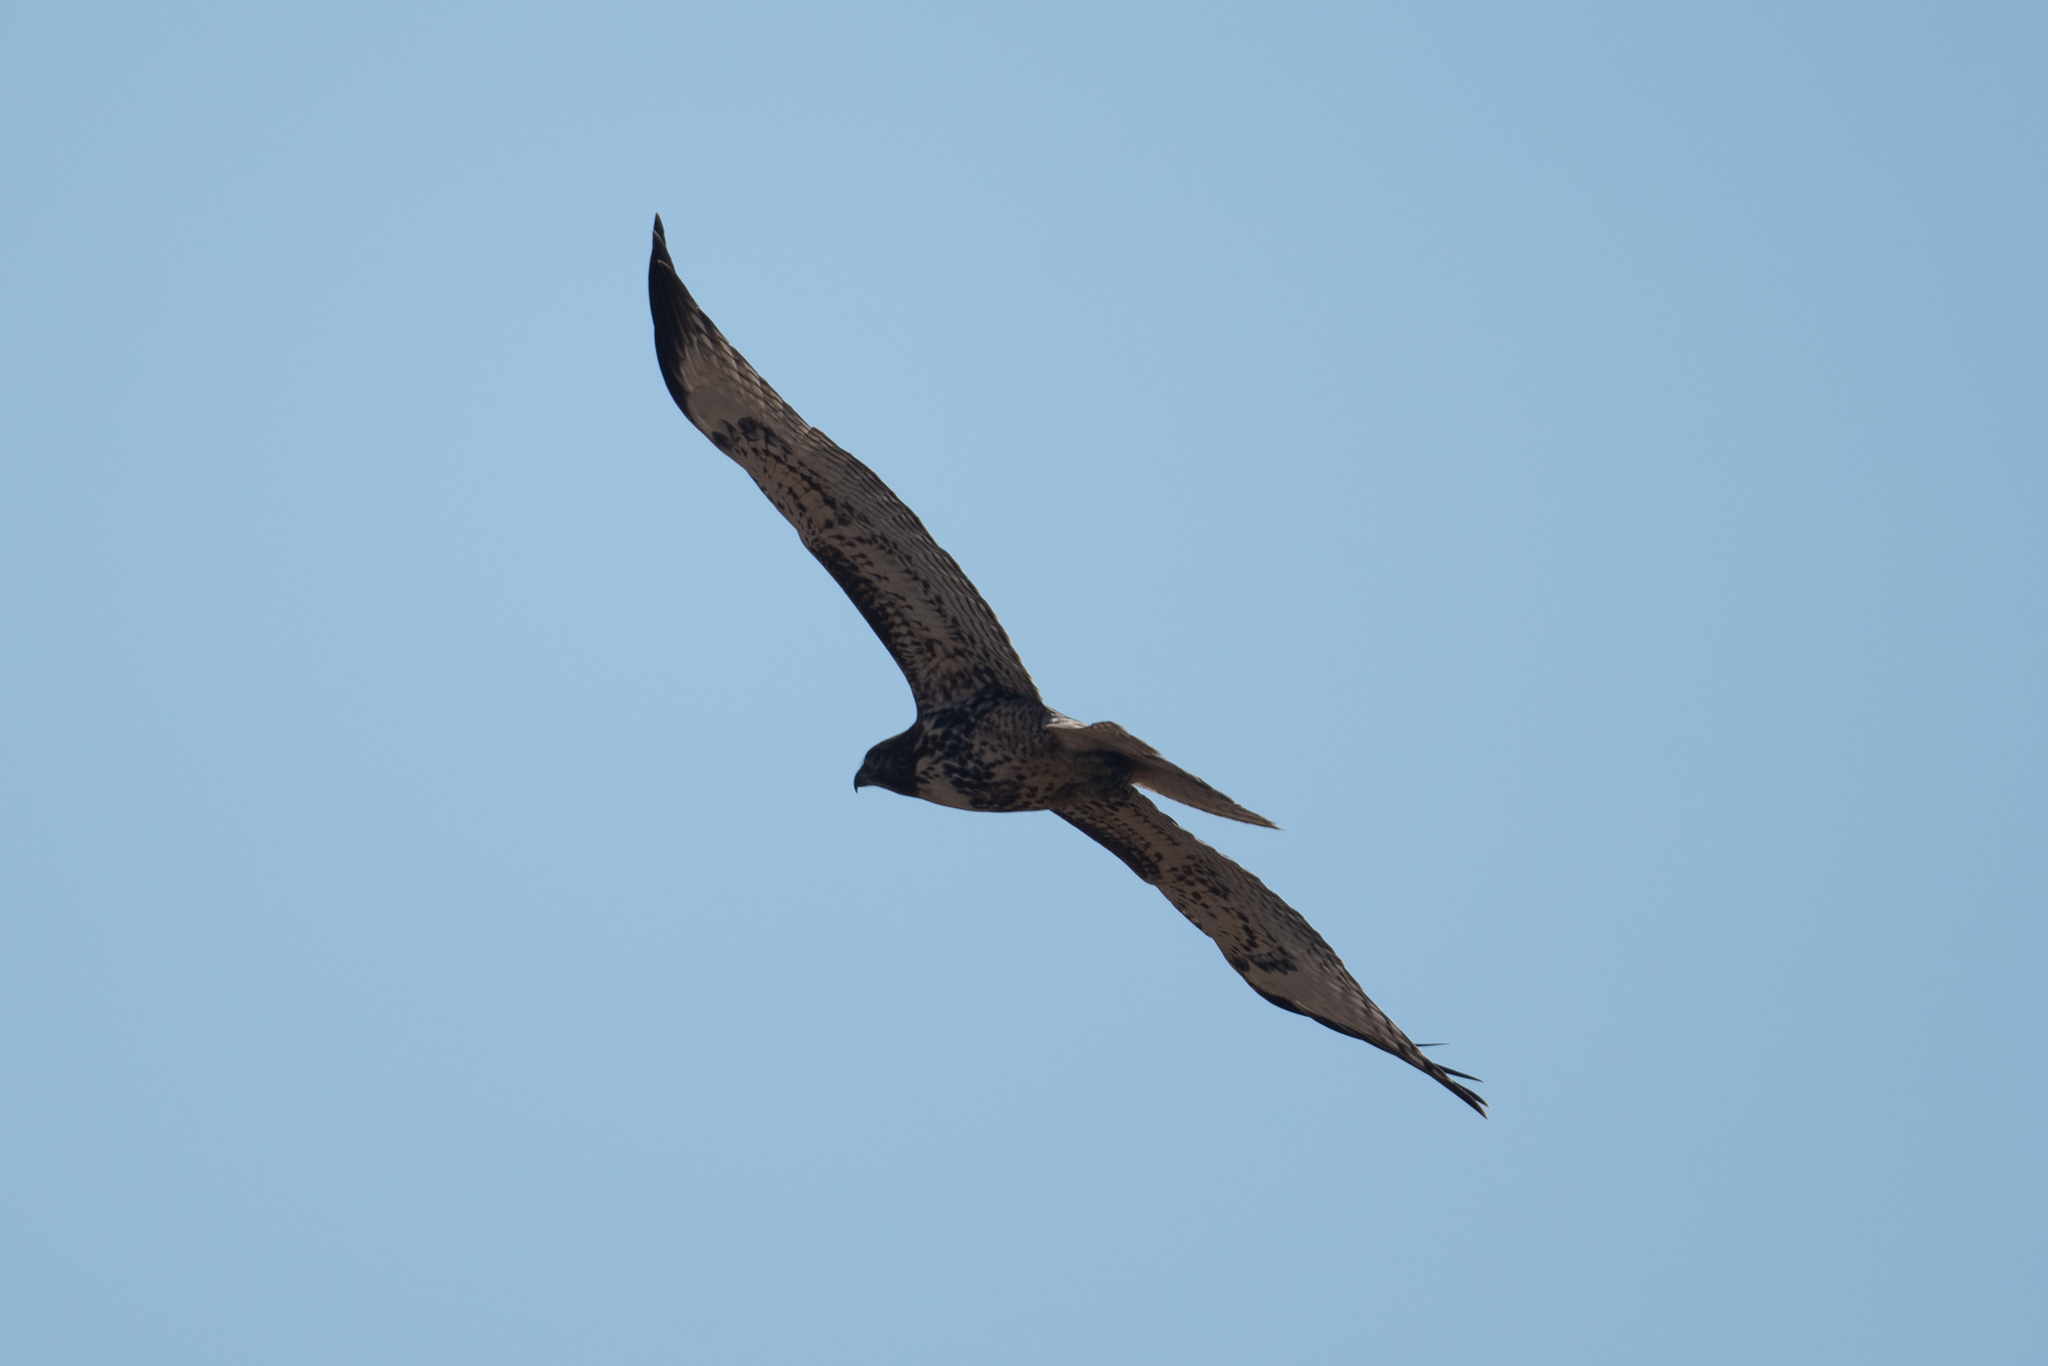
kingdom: Animalia
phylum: Chordata
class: Aves
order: Accipitriformes
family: Accipitridae
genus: Buteo
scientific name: Buteo jamaicensis
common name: Red-tailed hawk
